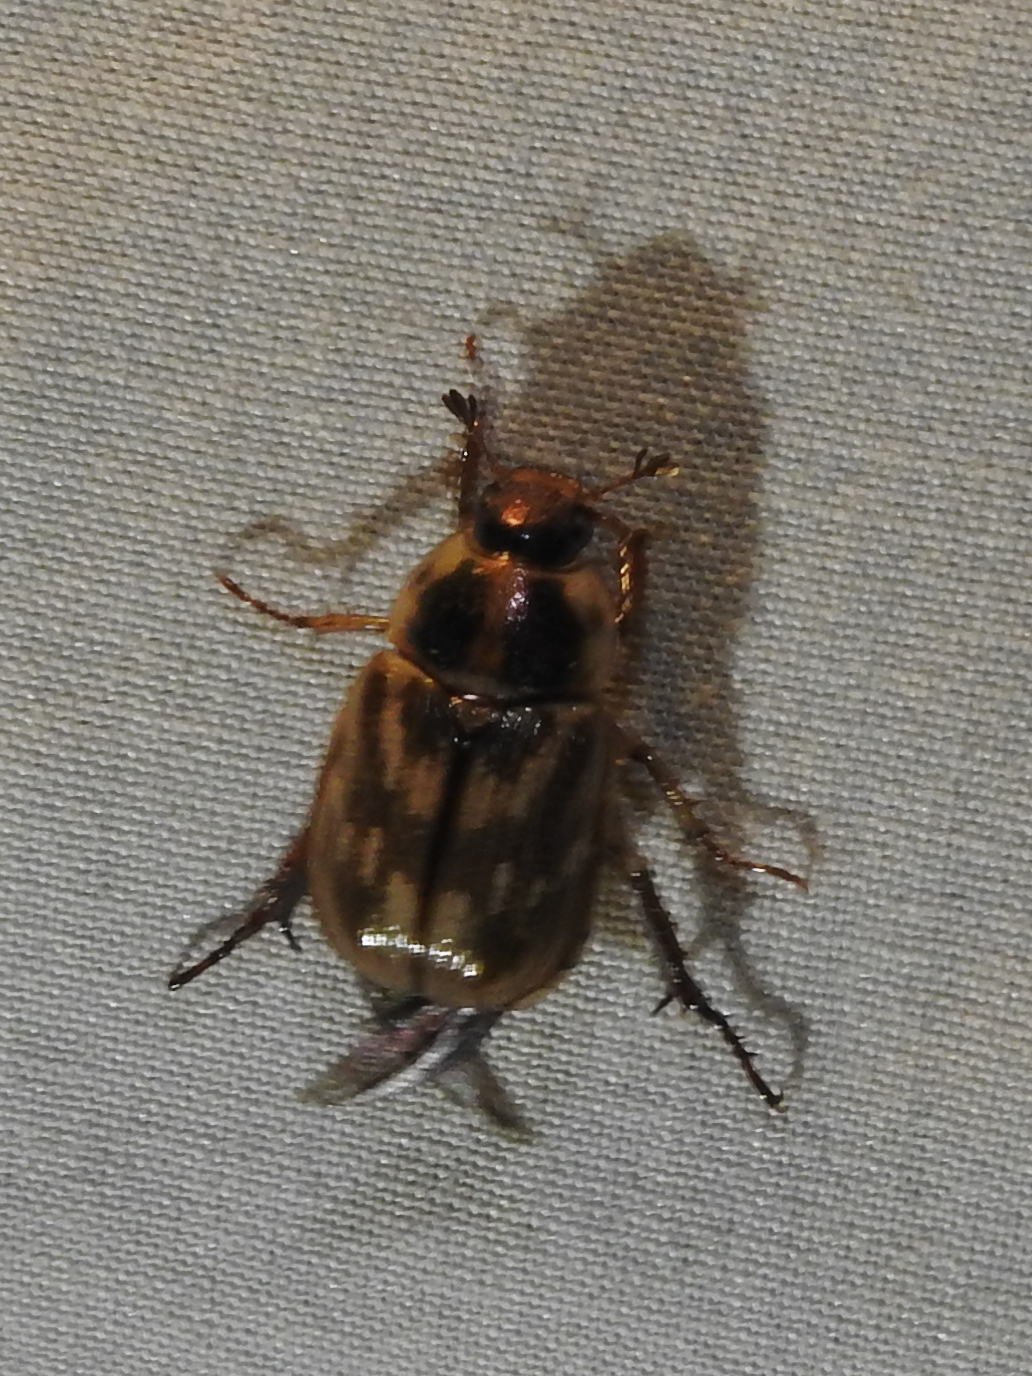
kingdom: Animalia
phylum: Arthropoda
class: Insecta
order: Coleoptera
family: Scarabaeidae
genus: Exomala
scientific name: Exomala orientalis
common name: Oriental beetle
